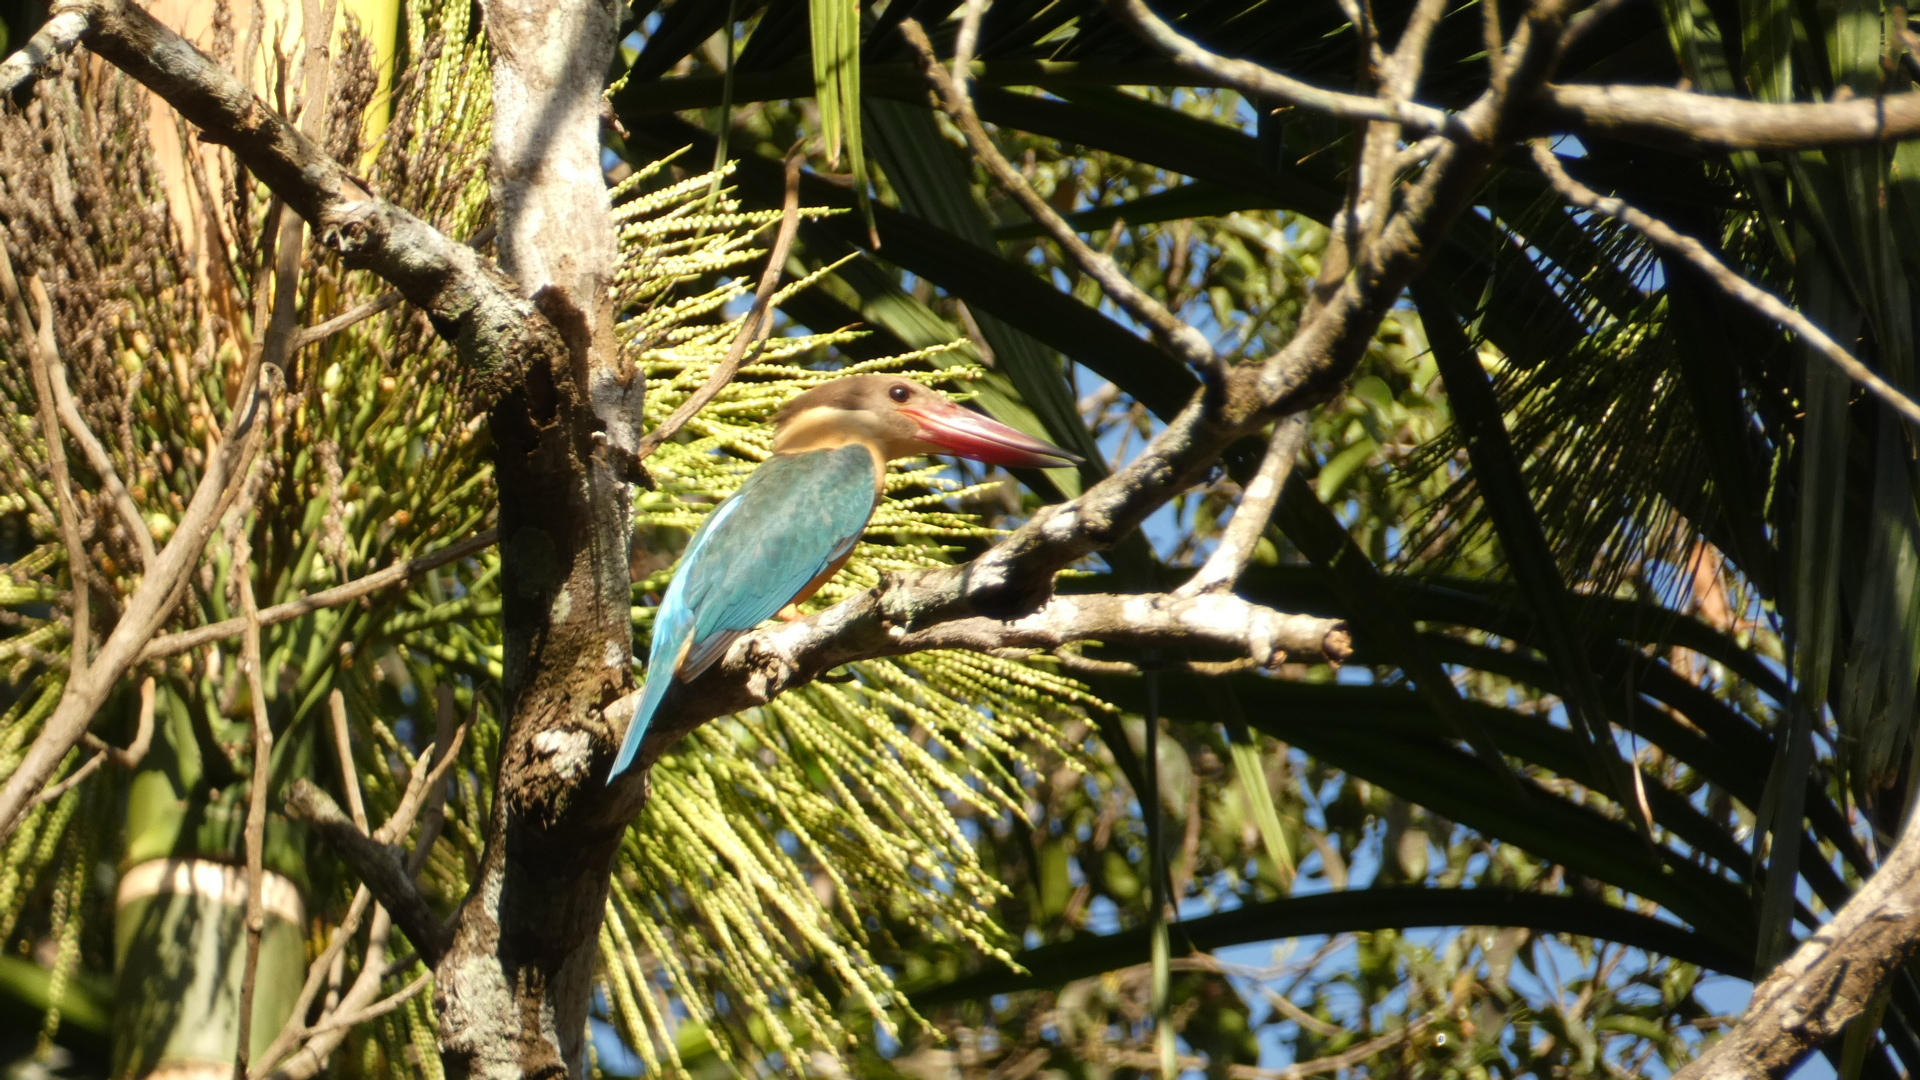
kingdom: Animalia
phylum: Chordata
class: Aves
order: Coraciiformes
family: Alcedinidae
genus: Pelargopsis
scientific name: Pelargopsis capensis
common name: Stork-billed kingfisher
